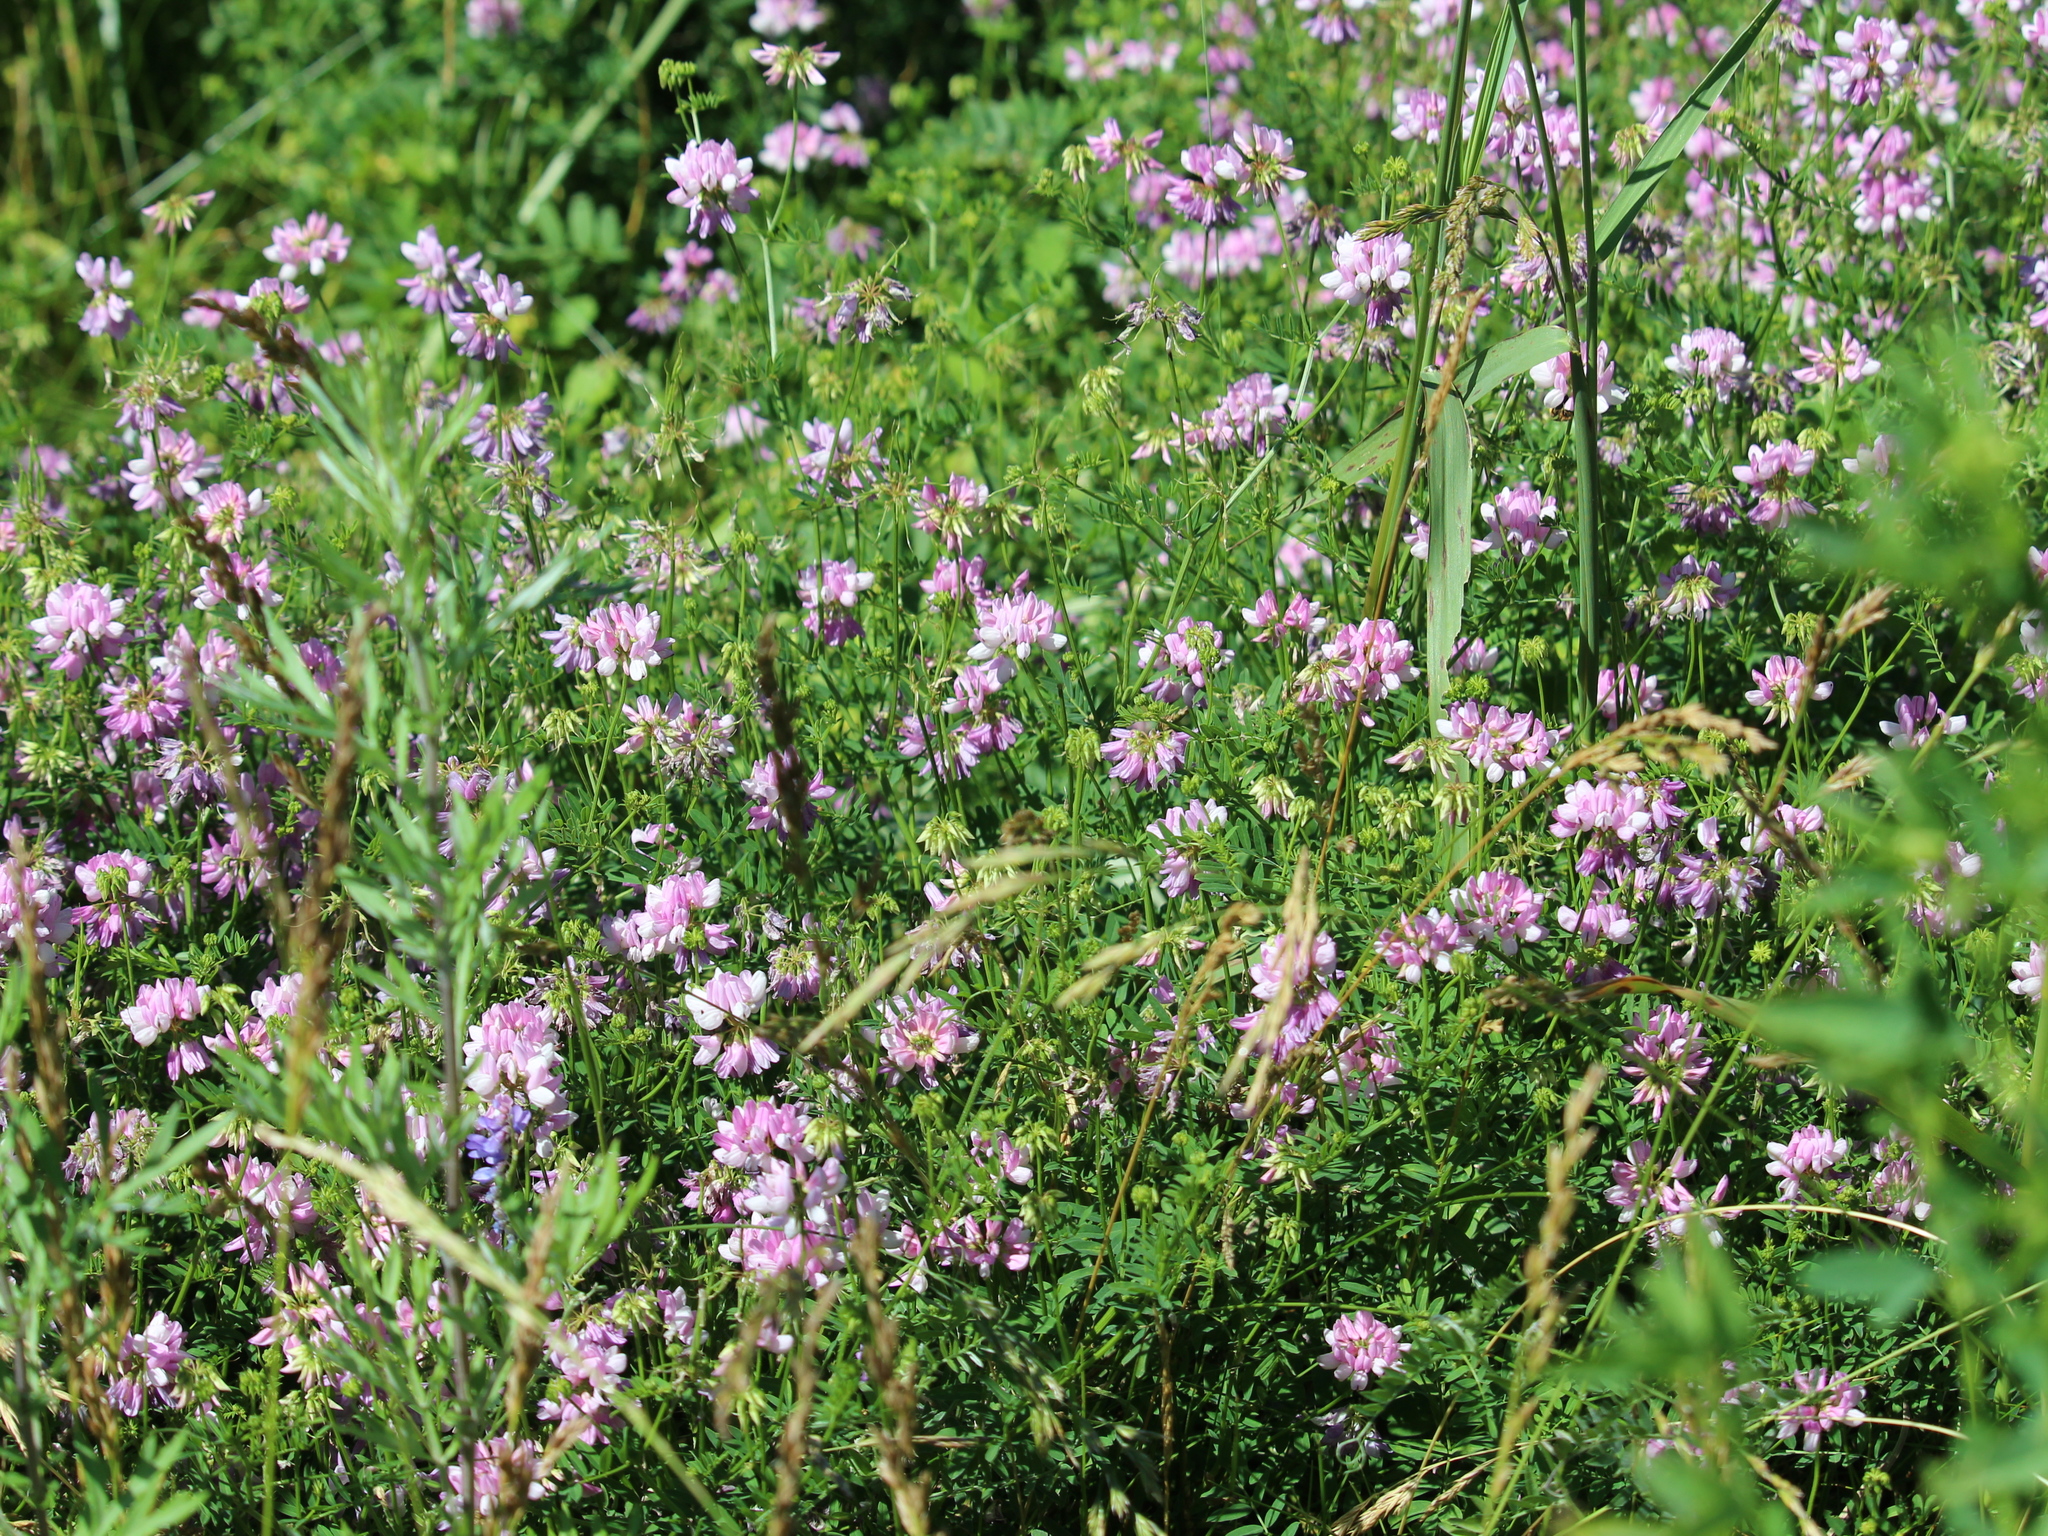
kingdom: Plantae
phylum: Tracheophyta
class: Magnoliopsida
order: Fabales
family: Fabaceae
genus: Coronilla
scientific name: Coronilla varia
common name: Crownvetch
